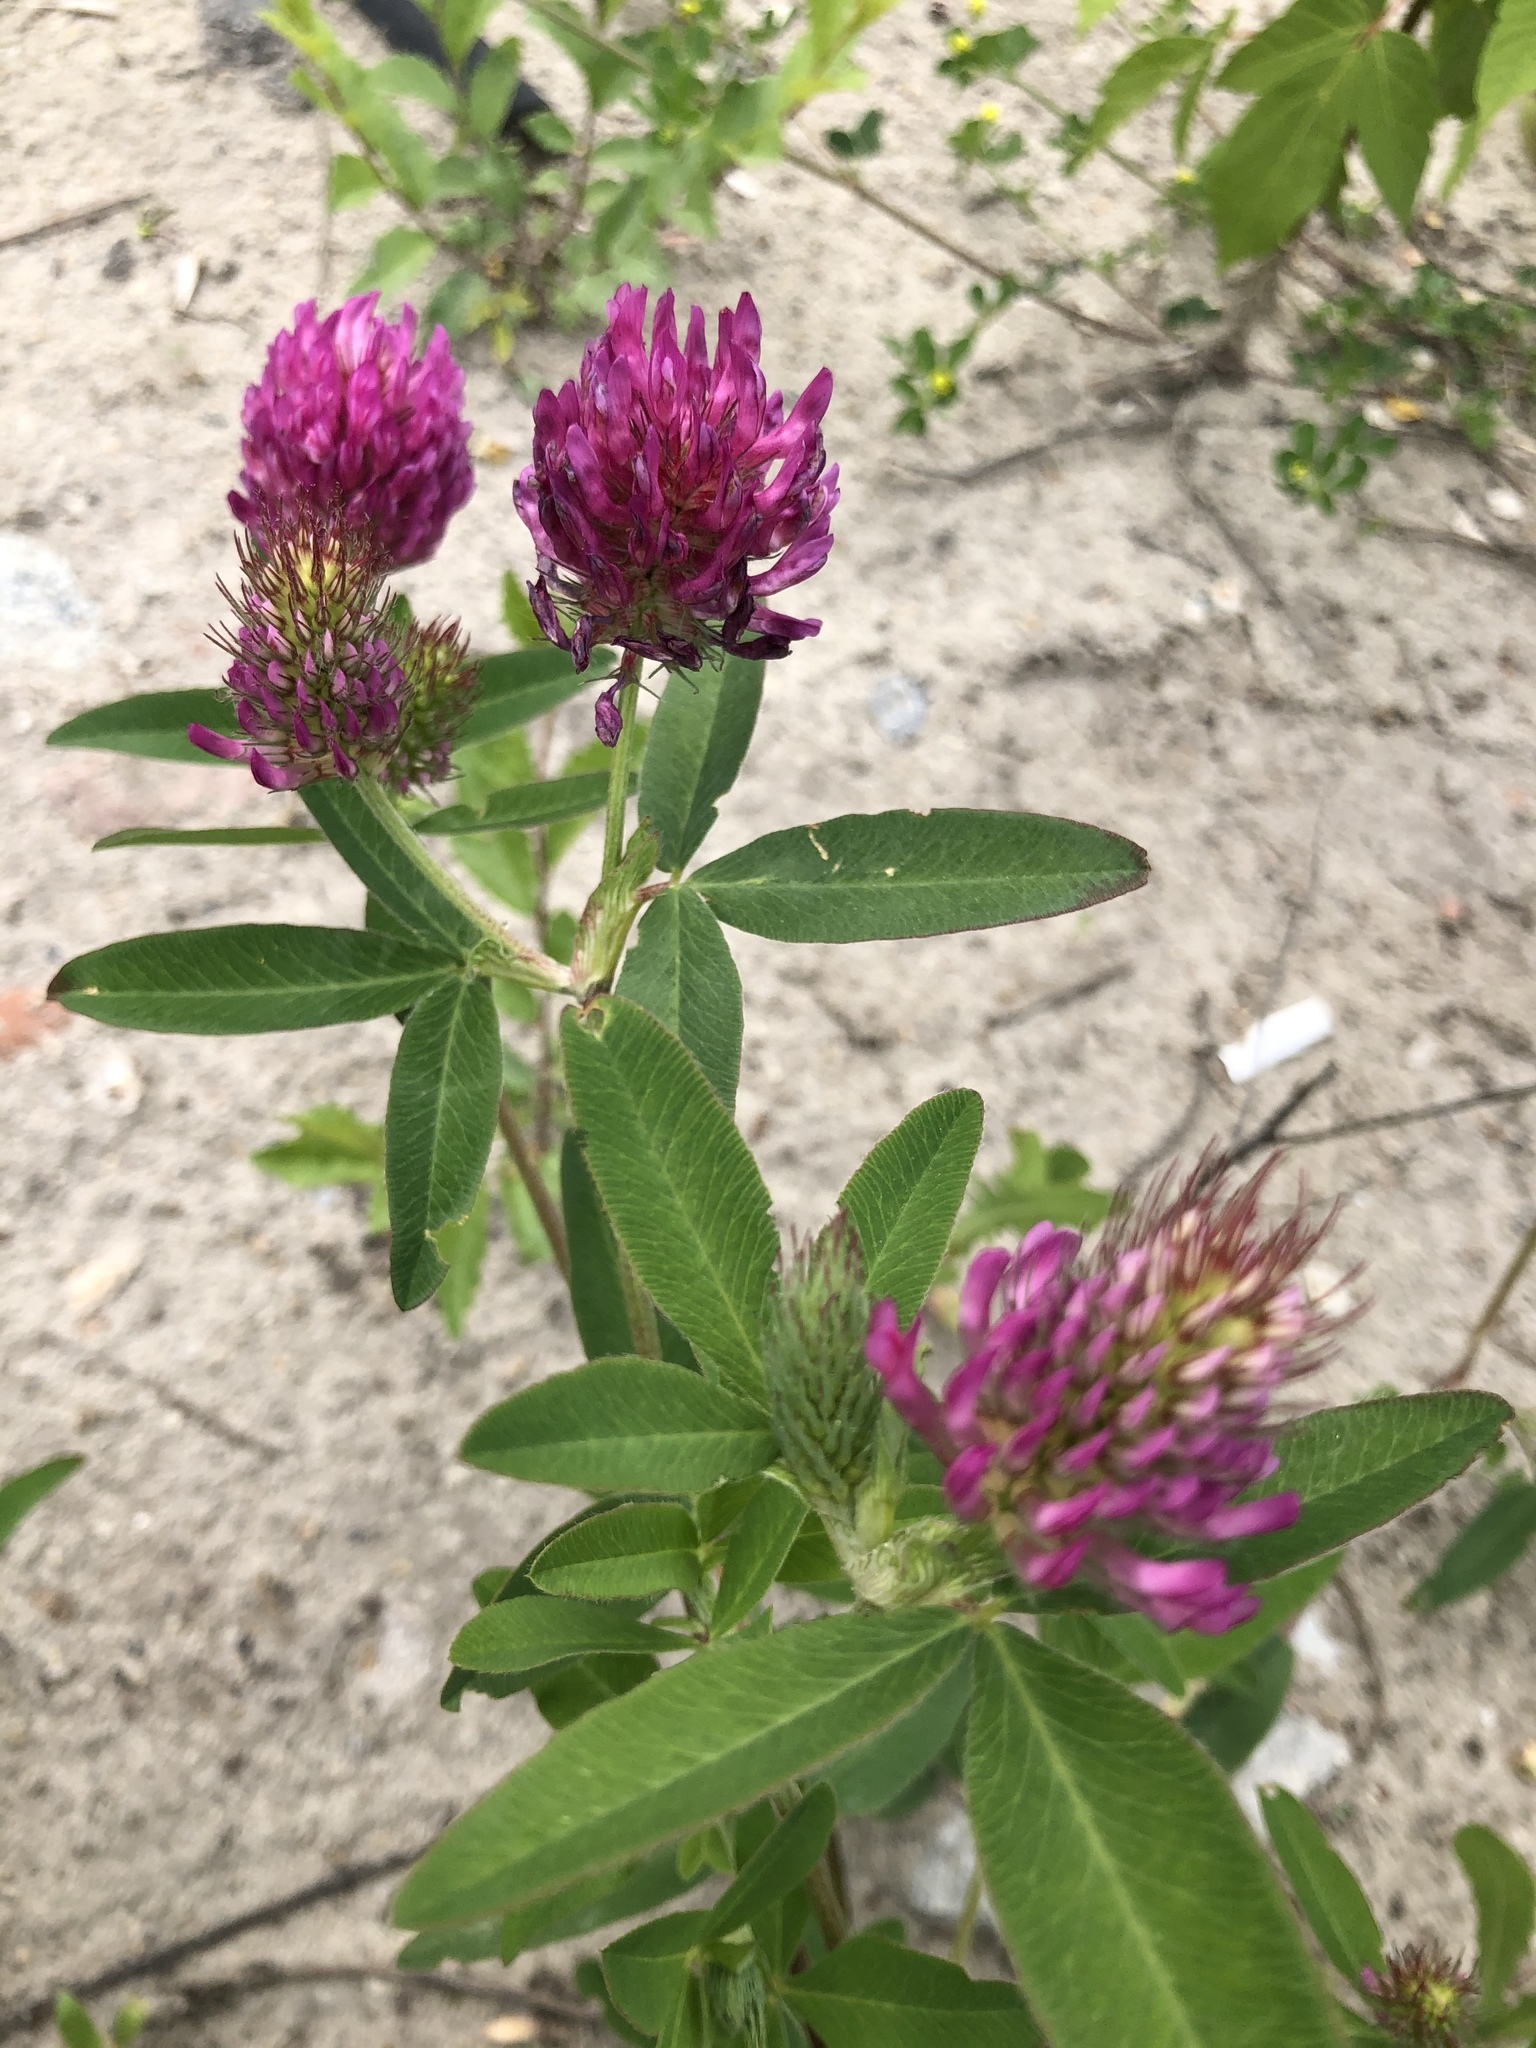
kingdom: Plantae
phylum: Tracheophyta
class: Magnoliopsida
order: Fabales
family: Fabaceae
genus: Trifolium
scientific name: Trifolium medium
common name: Zigzag clover
